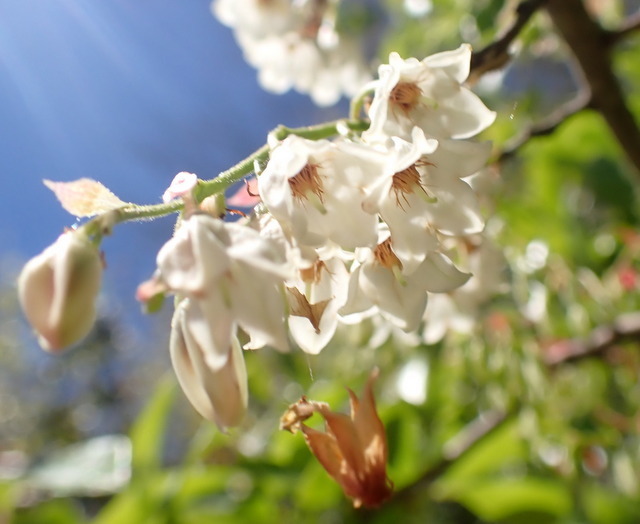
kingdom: Plantae
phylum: Tracheophyta
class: Magnoliopsida
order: Ericales
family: Ericaceae
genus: Vaccinium
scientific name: Vaccinium arboreum
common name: Farkleberry
